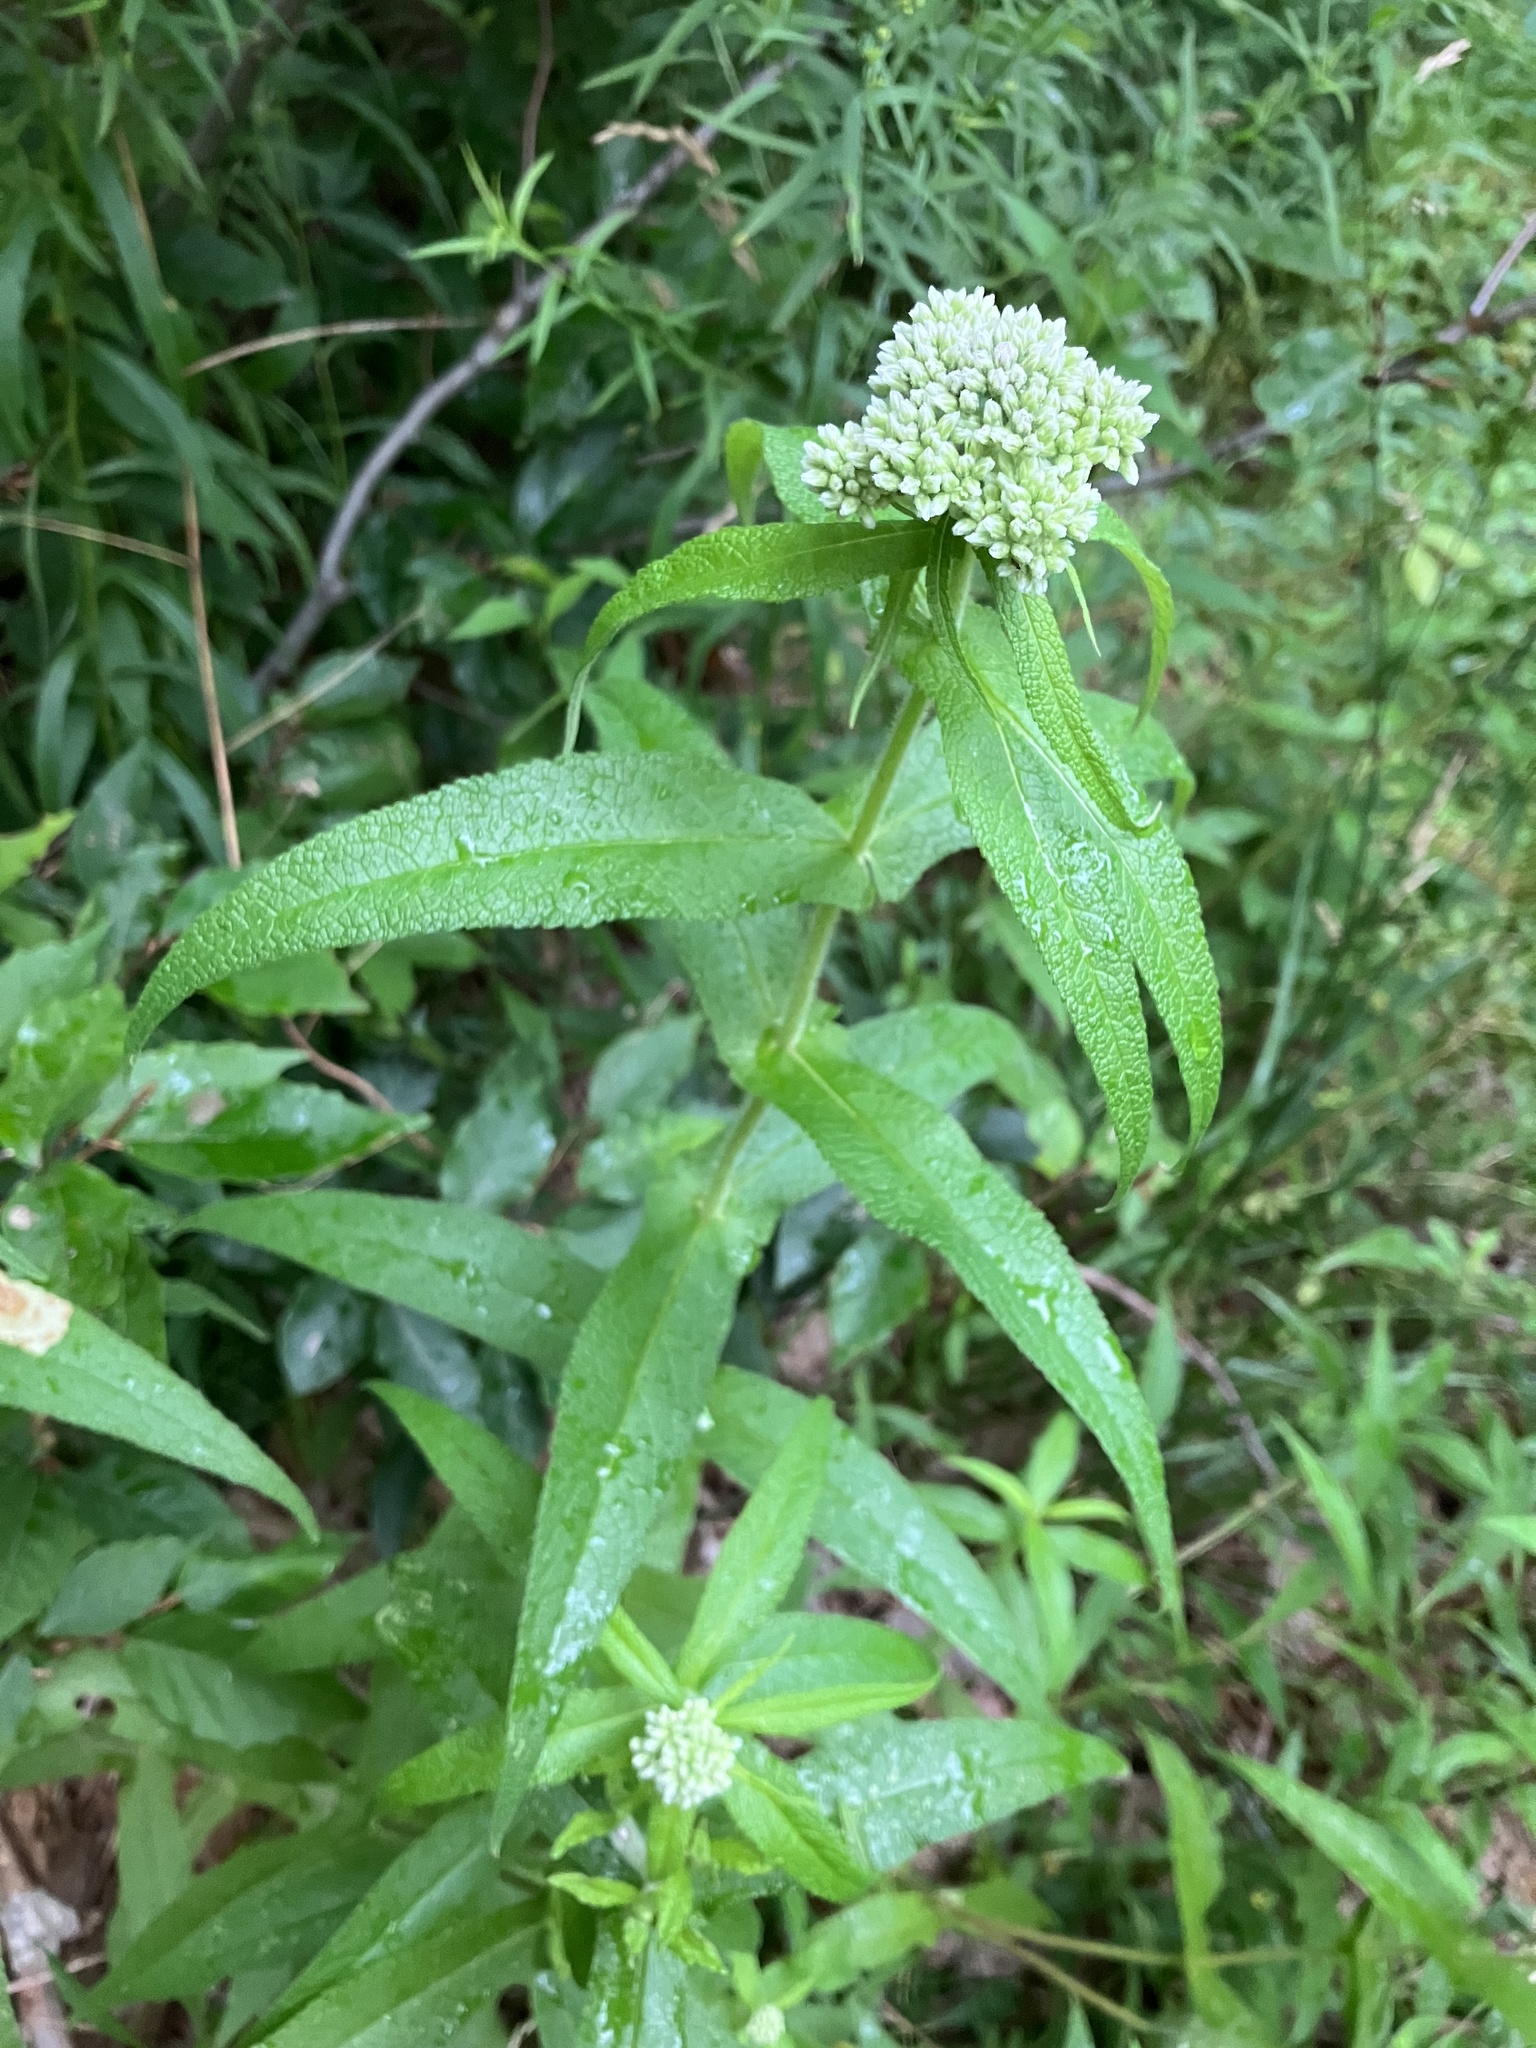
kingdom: Plantae
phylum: Tracheophyta
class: Magnoliopsida
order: Asterales
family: Asteraceae
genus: Eupatorium
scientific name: Eupatorium perfoliatum
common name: Boneset
